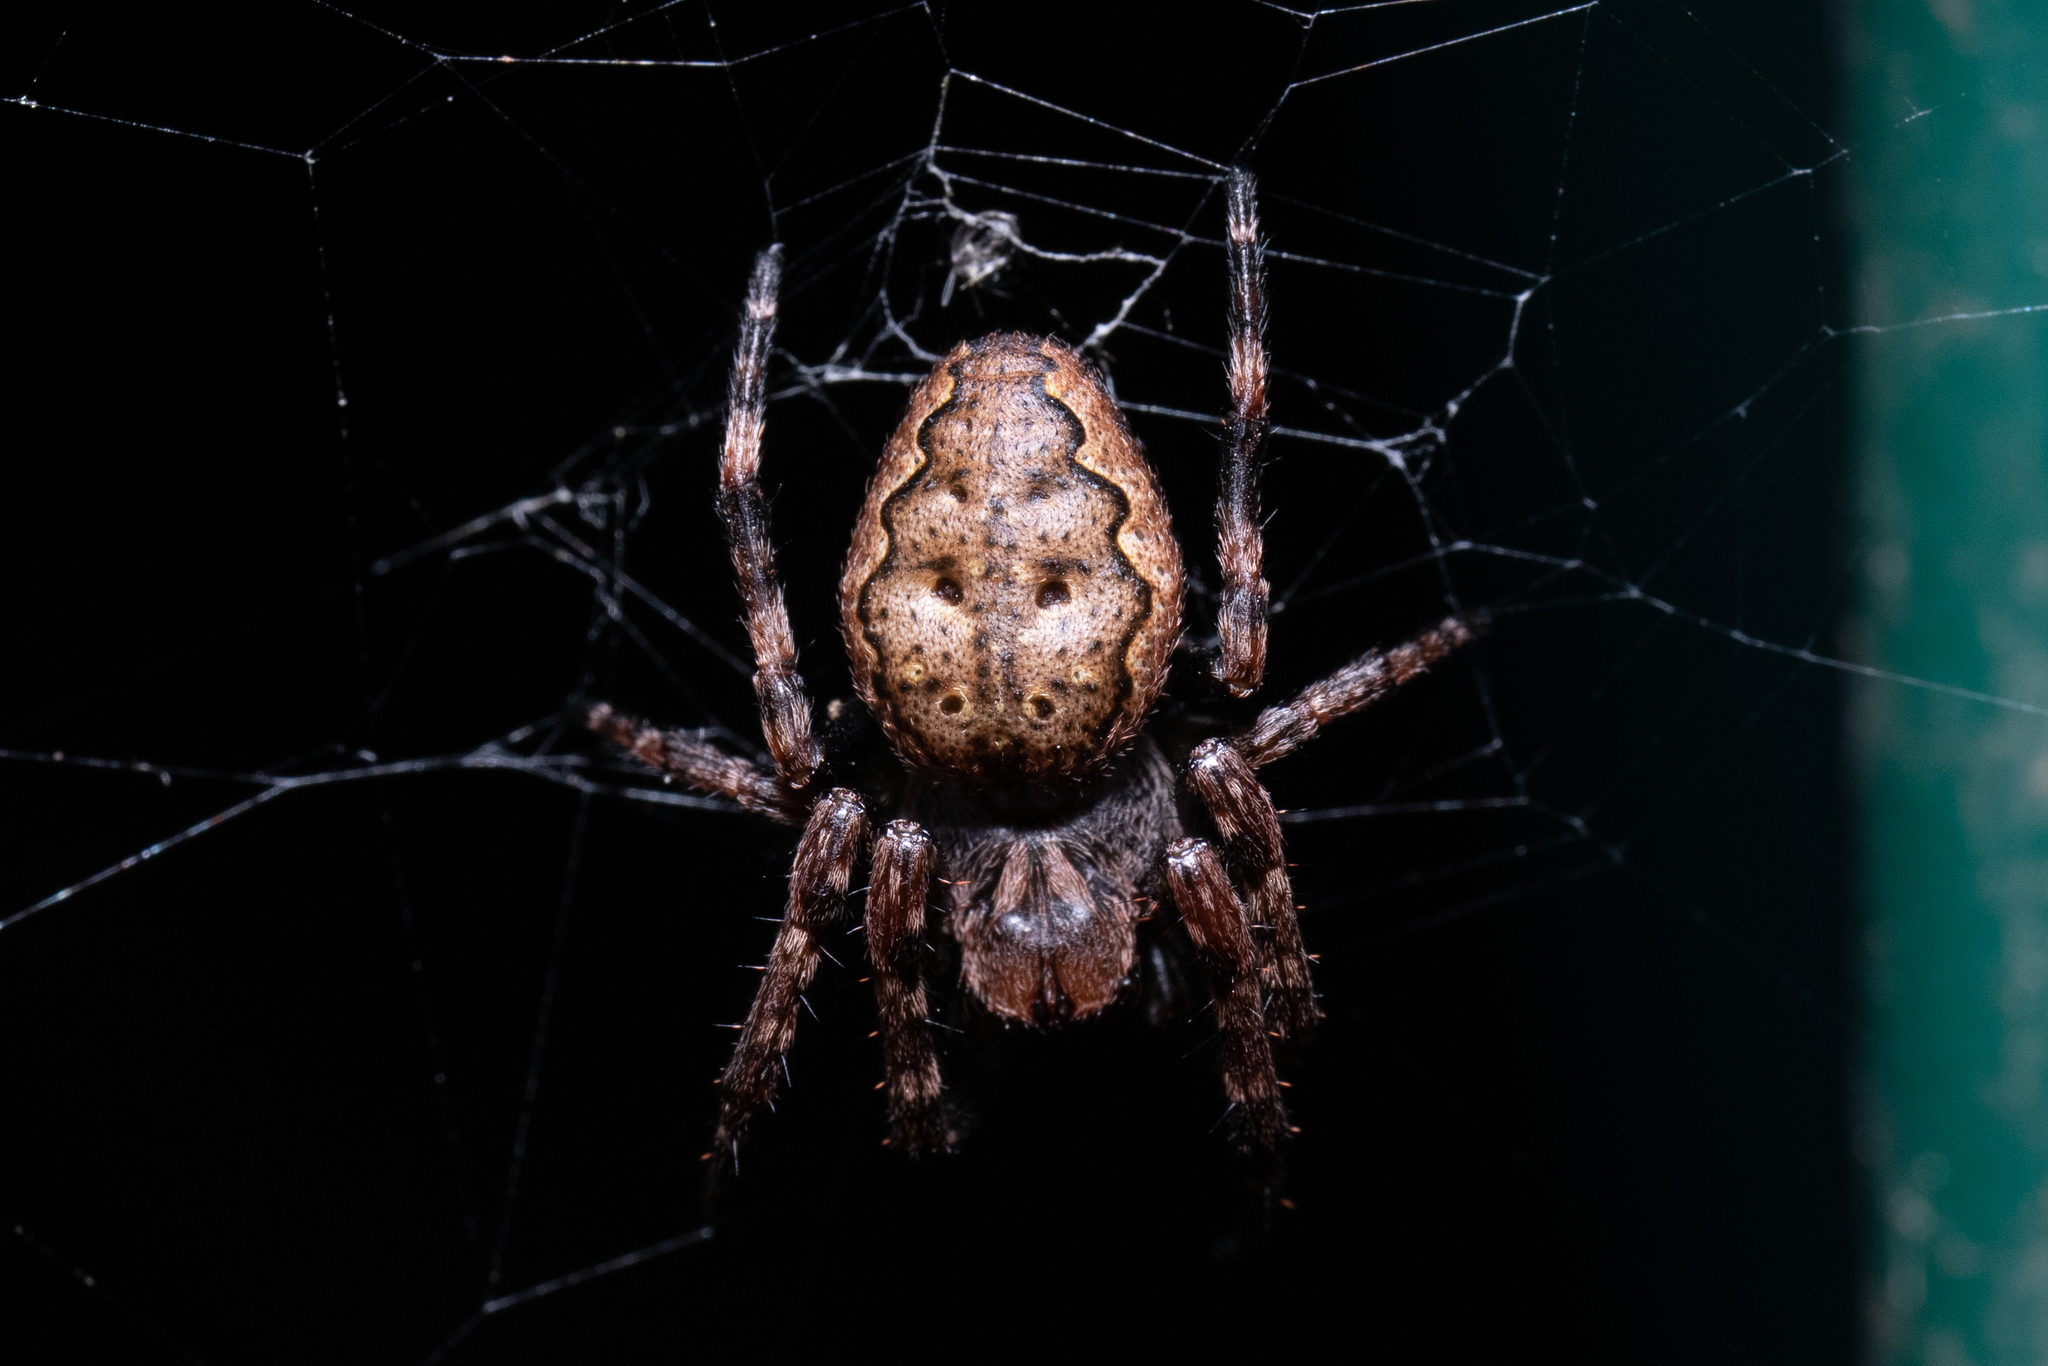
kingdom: Animalia
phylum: Arthropoda
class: Arachnida
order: Araneae
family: Araneidae
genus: Nuctenea
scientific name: Nuctenea umbratica
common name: Toad spider
